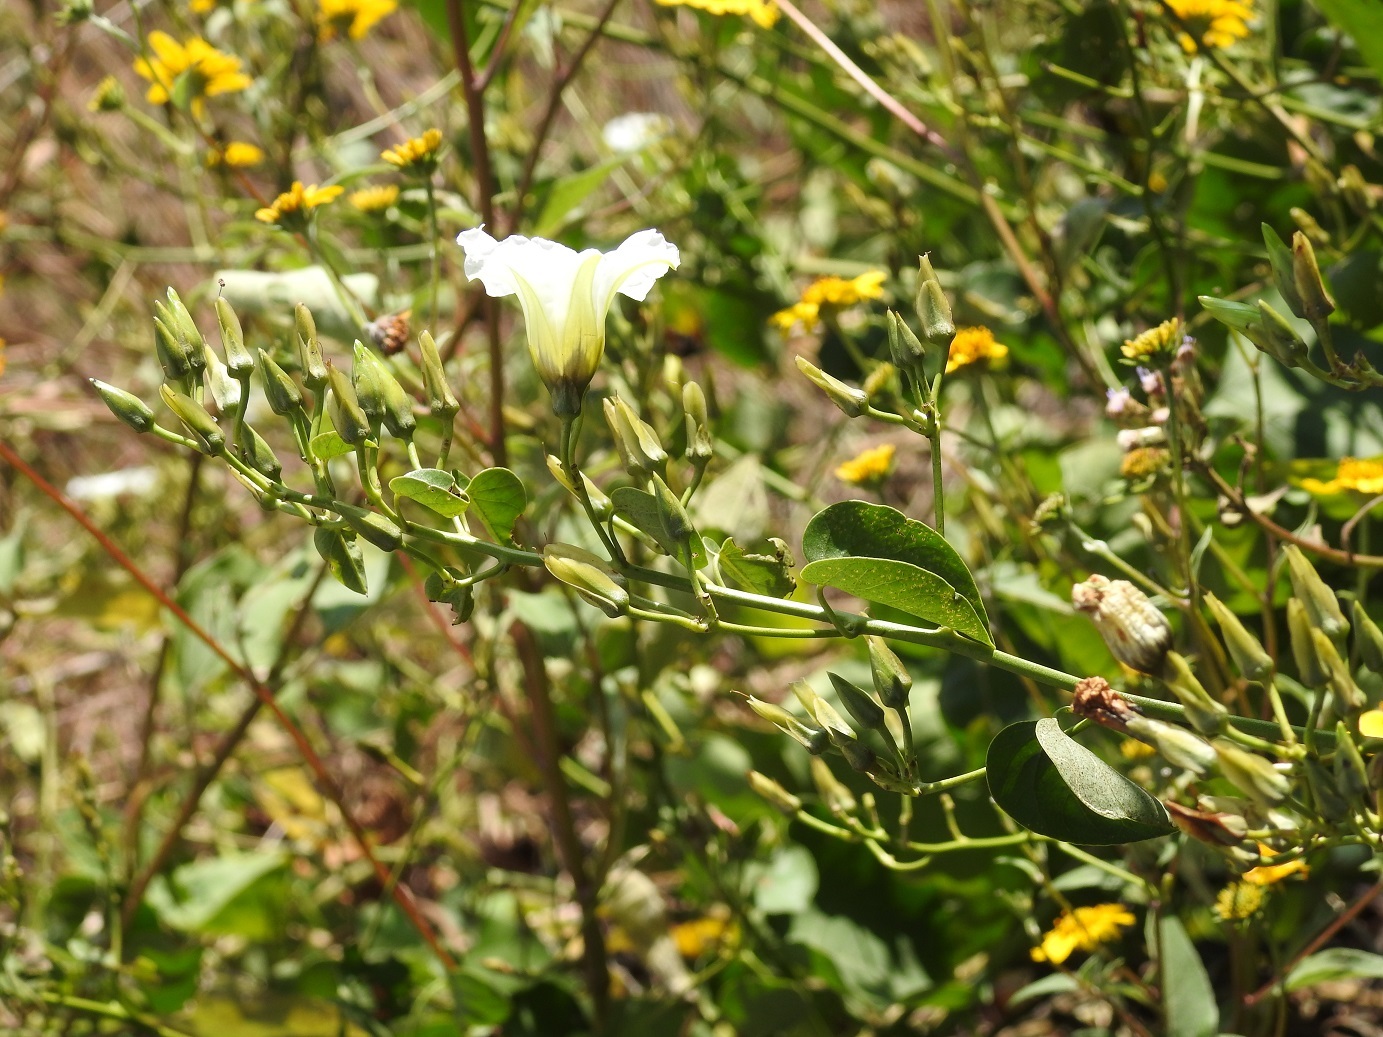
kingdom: Plantae
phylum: Tracheophyta
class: Magnoliopsida
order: Solanales
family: Convolvulaceae
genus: Ipomoea
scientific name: Ipomoea corymbosa
